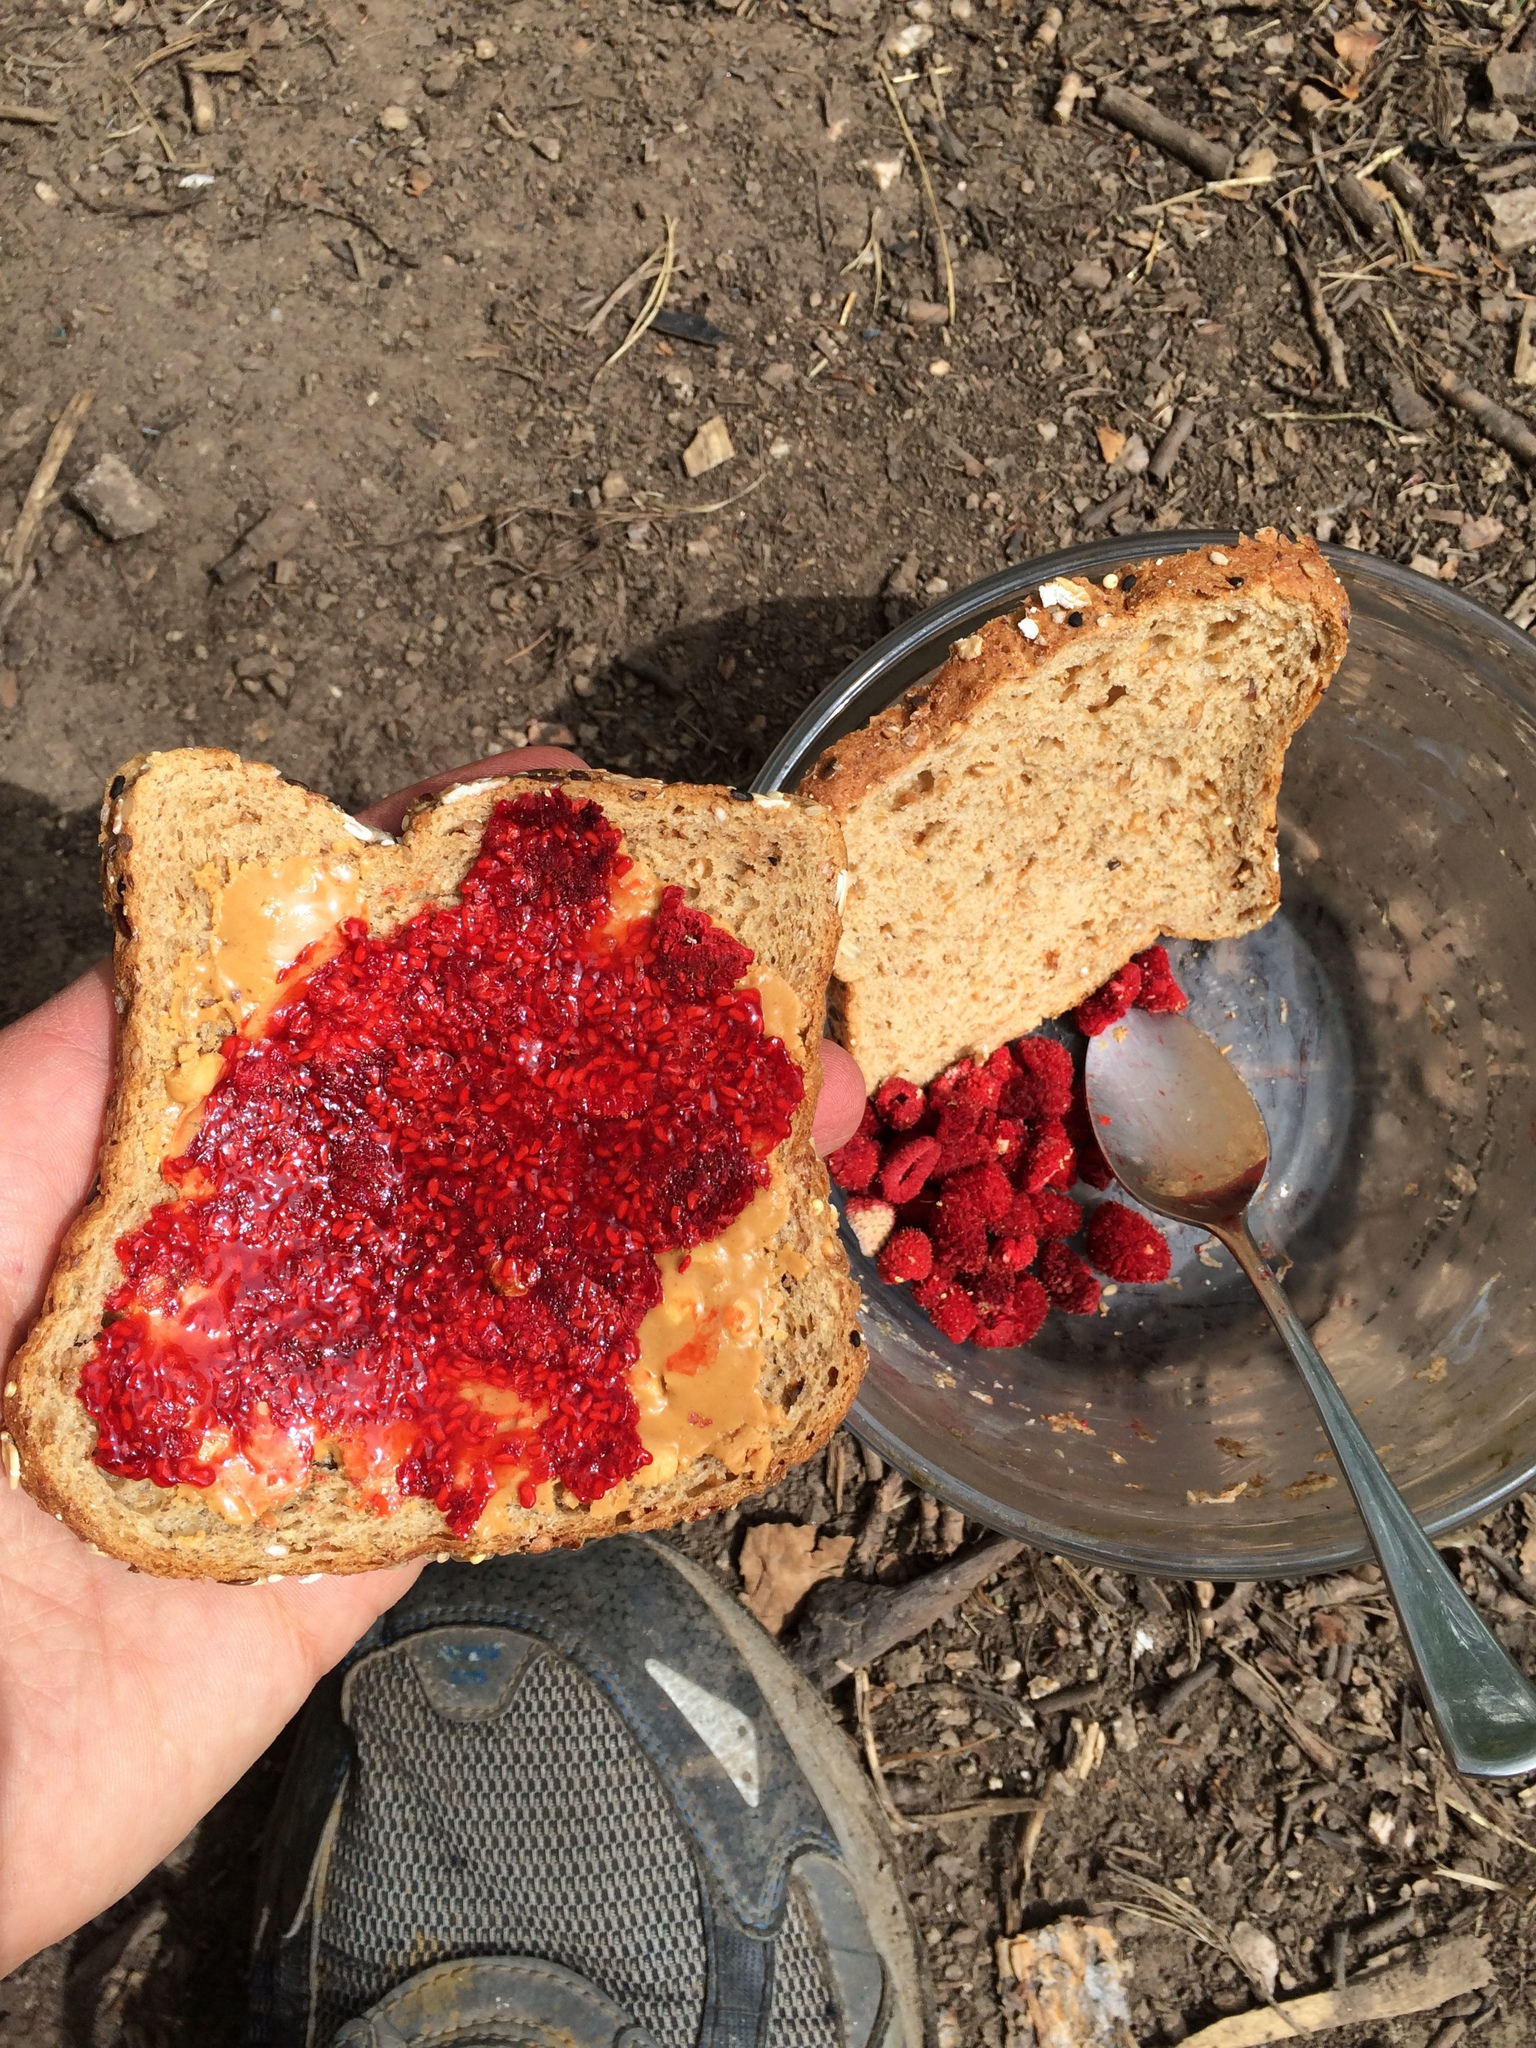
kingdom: Plantae
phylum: Tracheophyta
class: Magnoliopsida
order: Rosales
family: Rosaceae
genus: Rubus
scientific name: Rubus parviflorus
